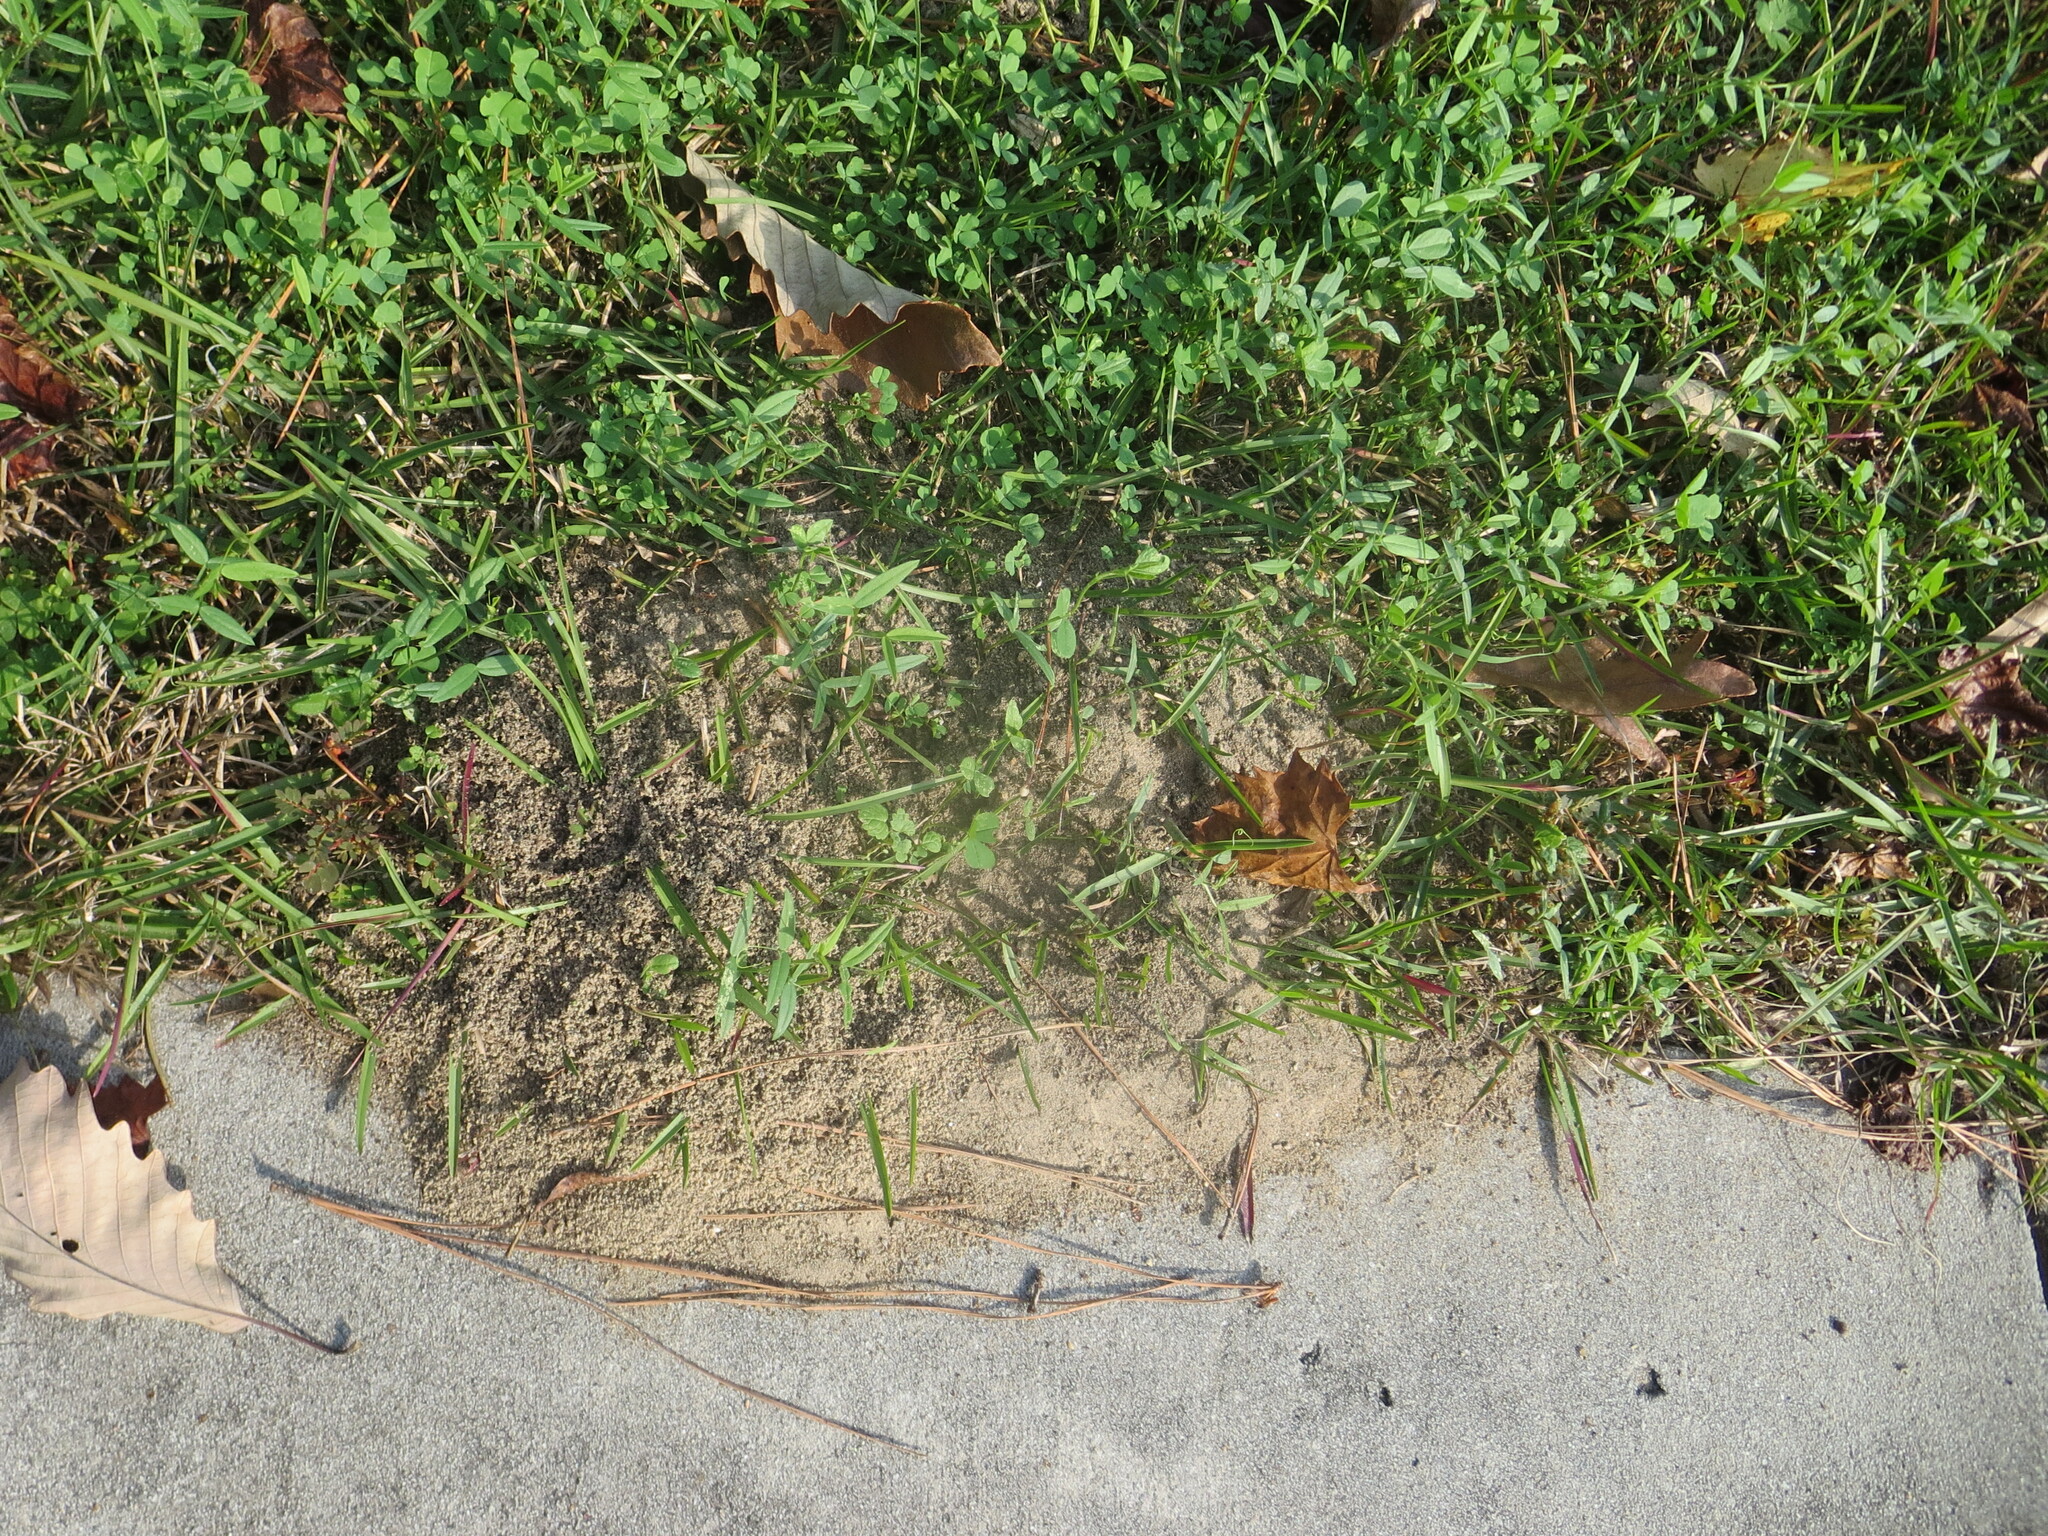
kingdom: Animalia
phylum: Arthropoda
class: Insecta
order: Hymenoptera
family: Formicidae
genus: Solenopsis
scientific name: Solenopsis invicta
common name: Red imported fire ant
